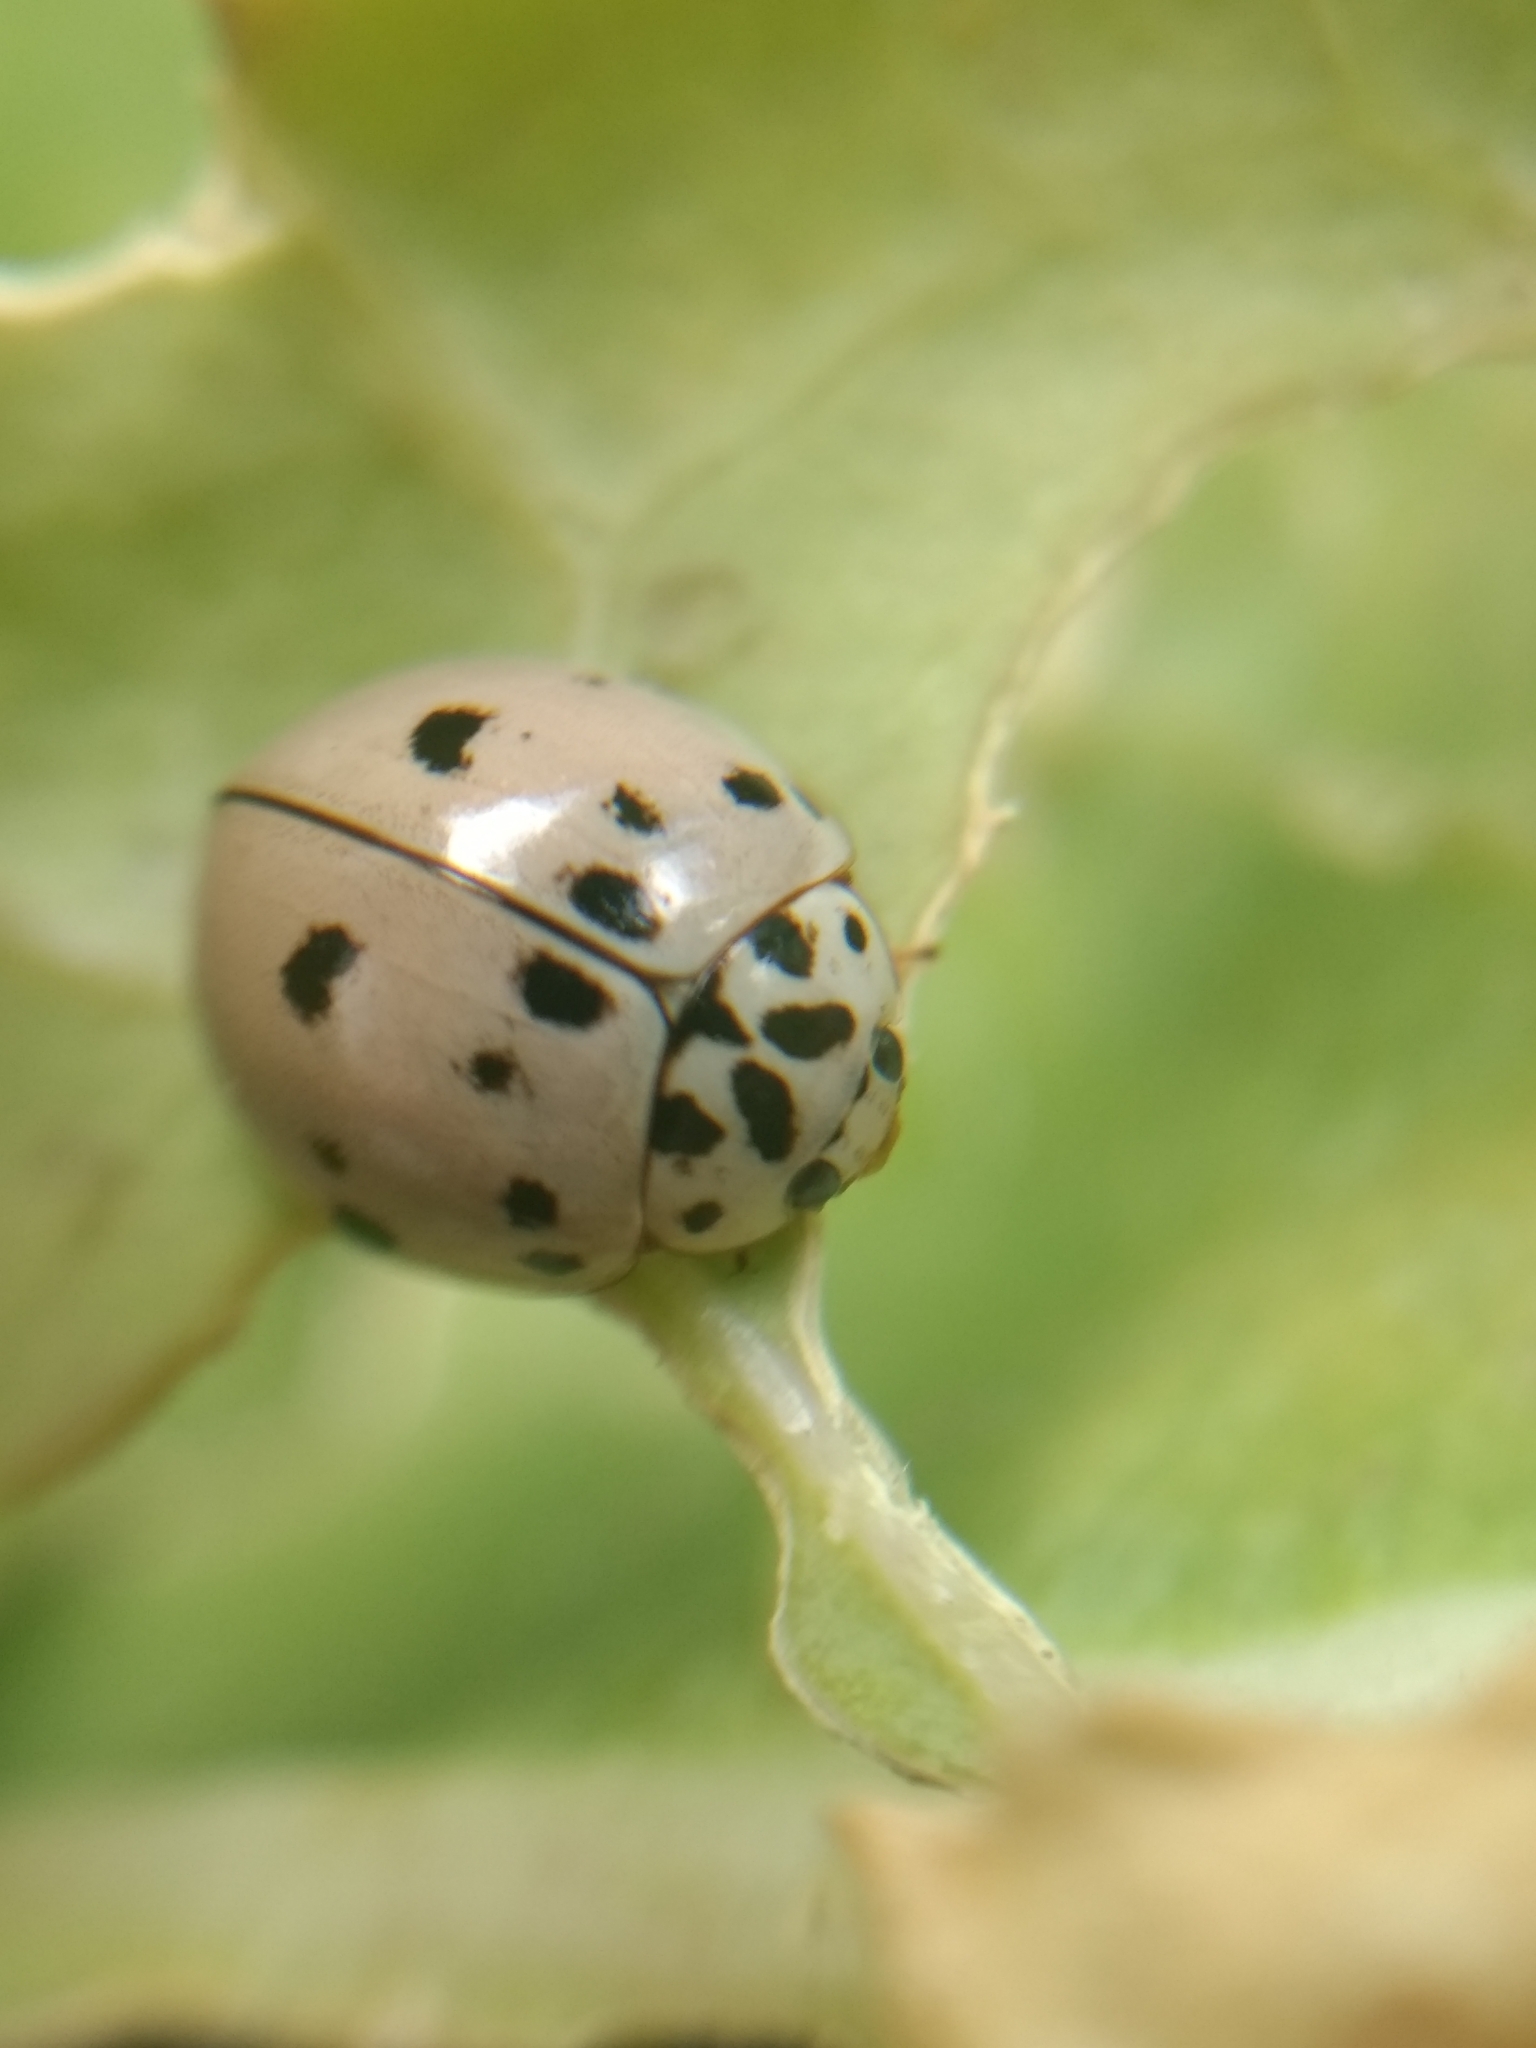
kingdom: Animalia
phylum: Arthropoda
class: Insecta
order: Coleoptera
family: Coccinellidae
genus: Olla
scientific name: Olla v-nigrum
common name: Ashy gray lady beetle
